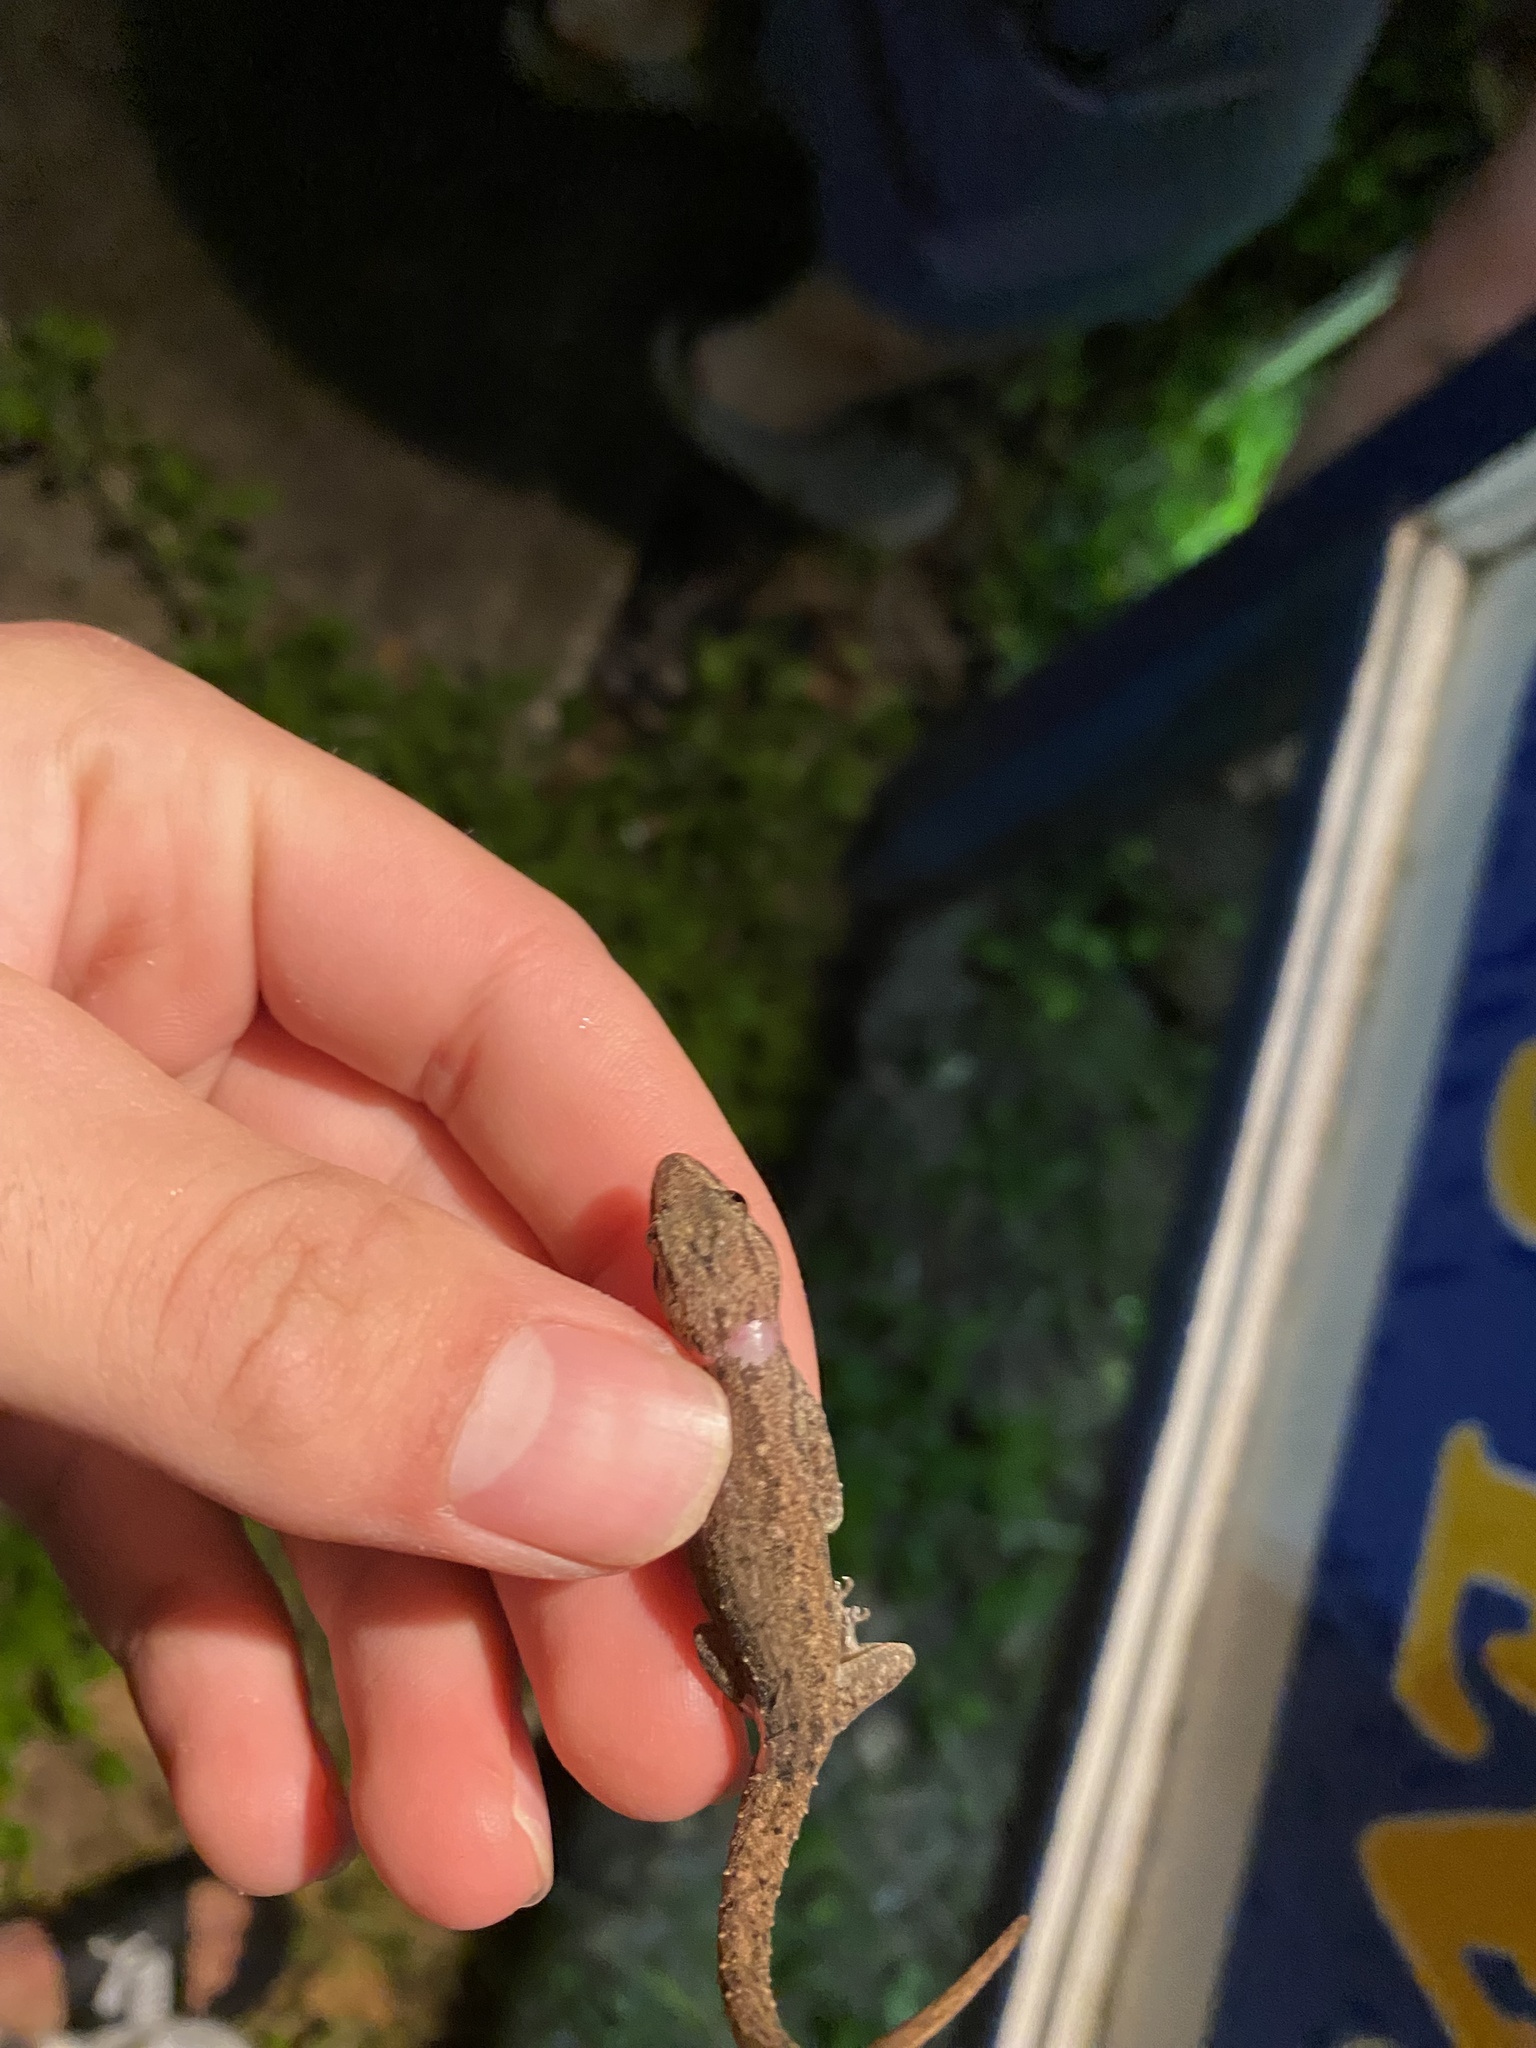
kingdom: Animalia
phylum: Chordata
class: Squamata
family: Gekkonidae
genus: Hemidactylus
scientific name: Hemidactylus frenatus
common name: Common house gecko
